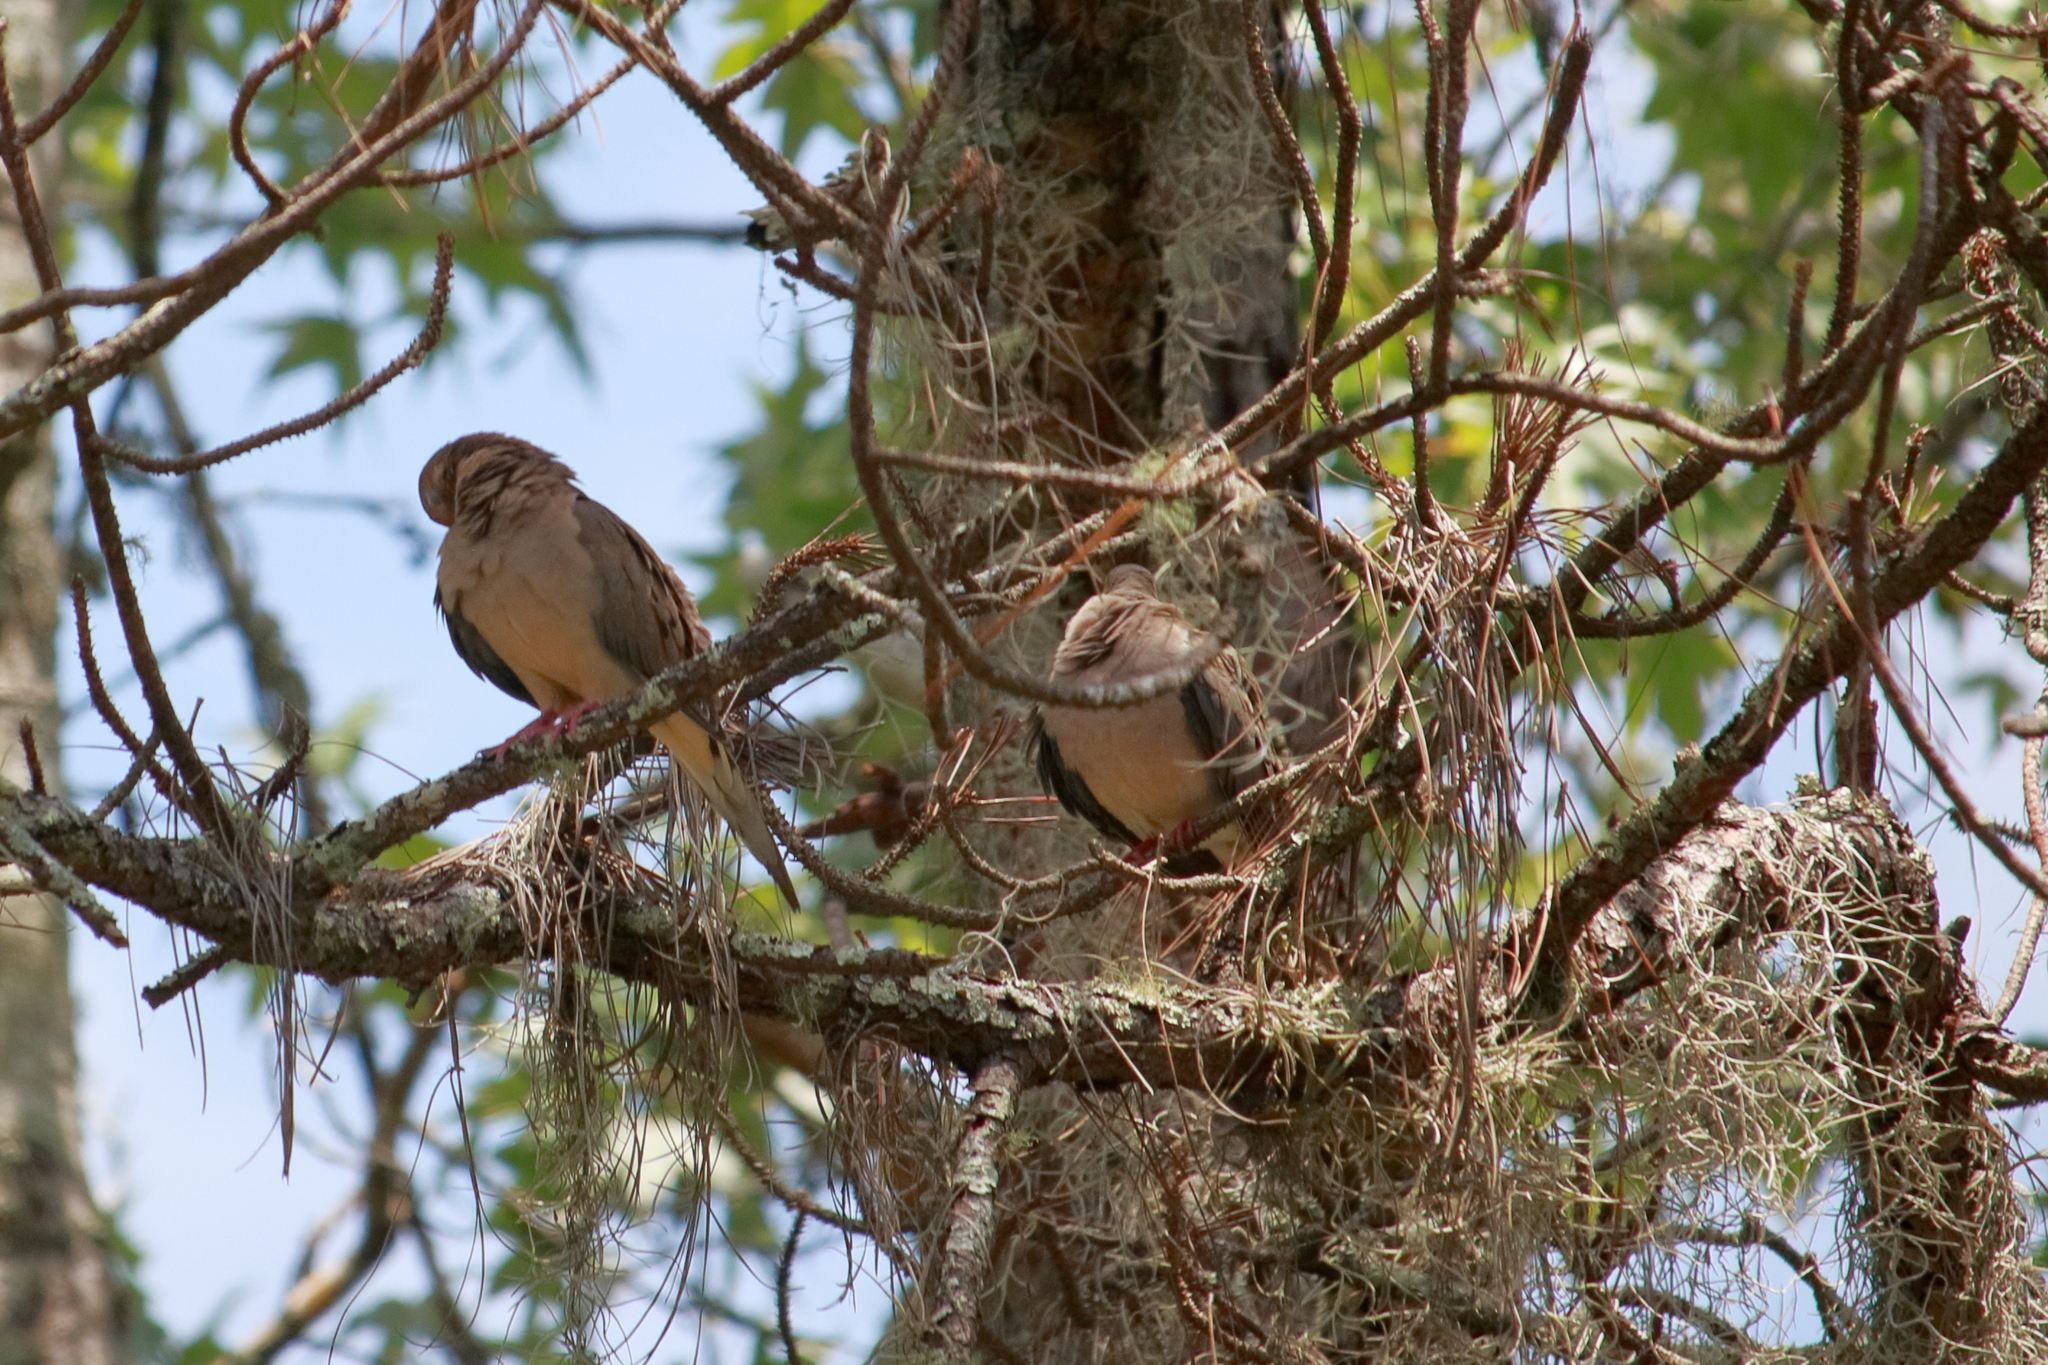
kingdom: Animalia
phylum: Chordata
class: Aves
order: Columbiformes
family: Columbidae
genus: Zenaida
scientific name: Zenaida macroura
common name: Mourning dove
